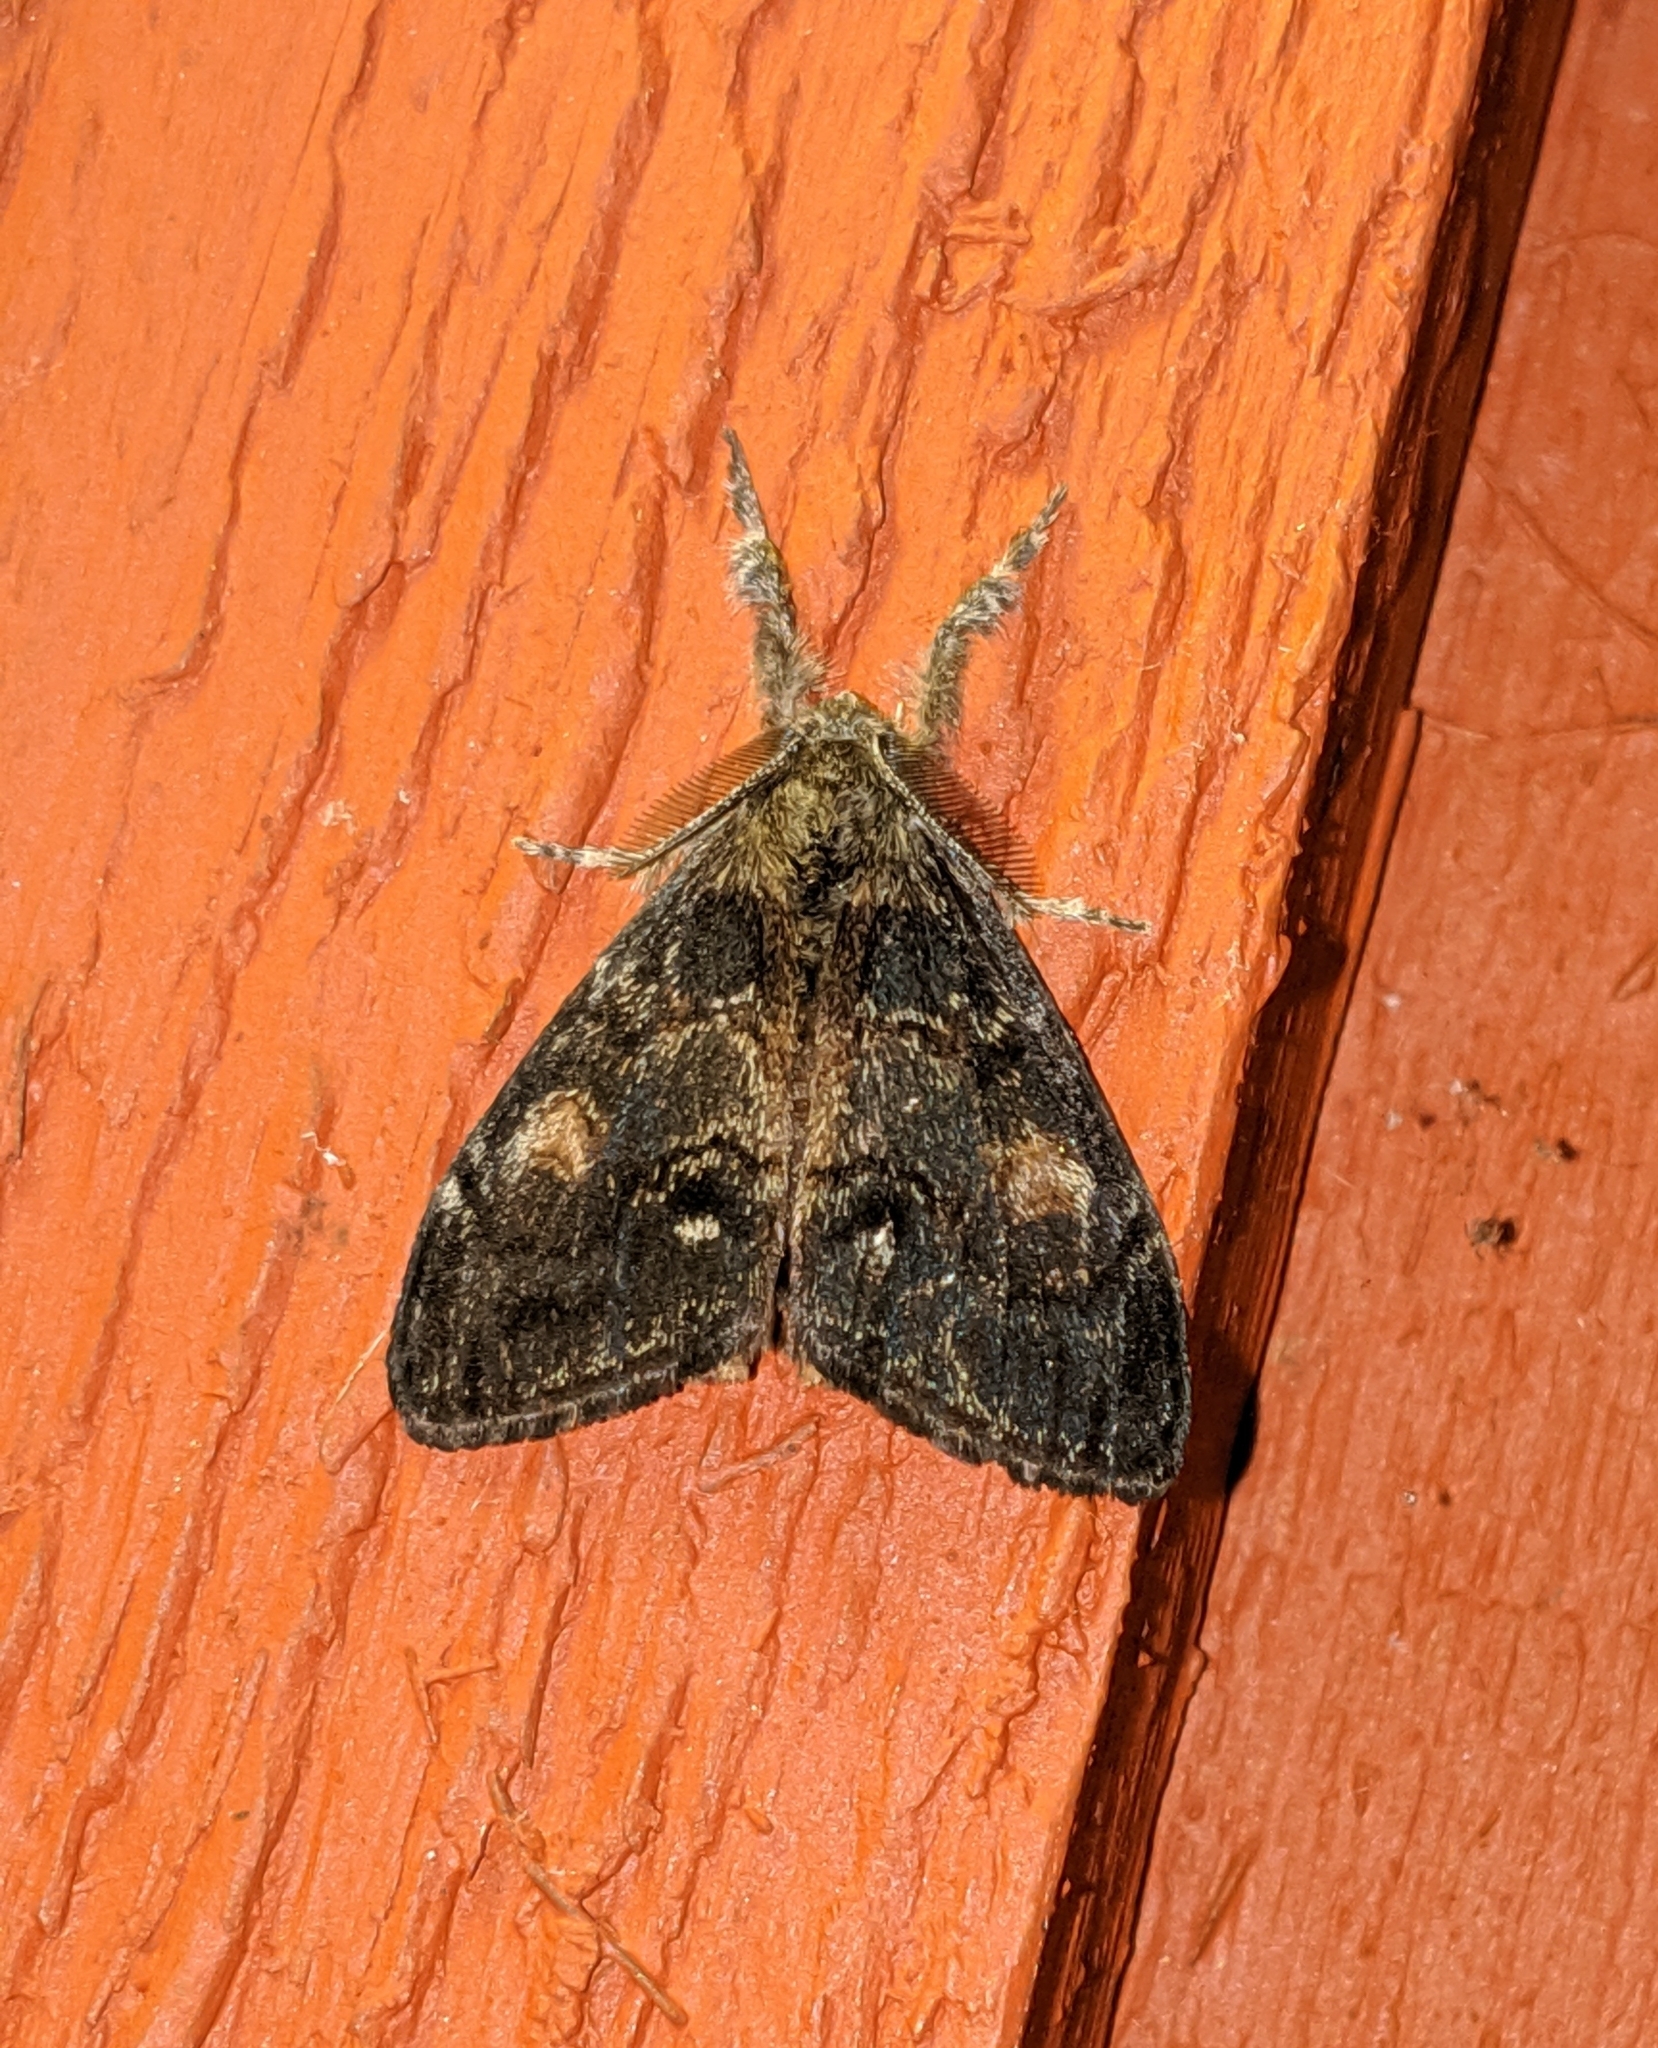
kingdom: Animalia
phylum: Arthropoda
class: Insecta
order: Lepidoptera
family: Erebidae
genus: Orgyia
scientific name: Orgyia pseudotsugata
